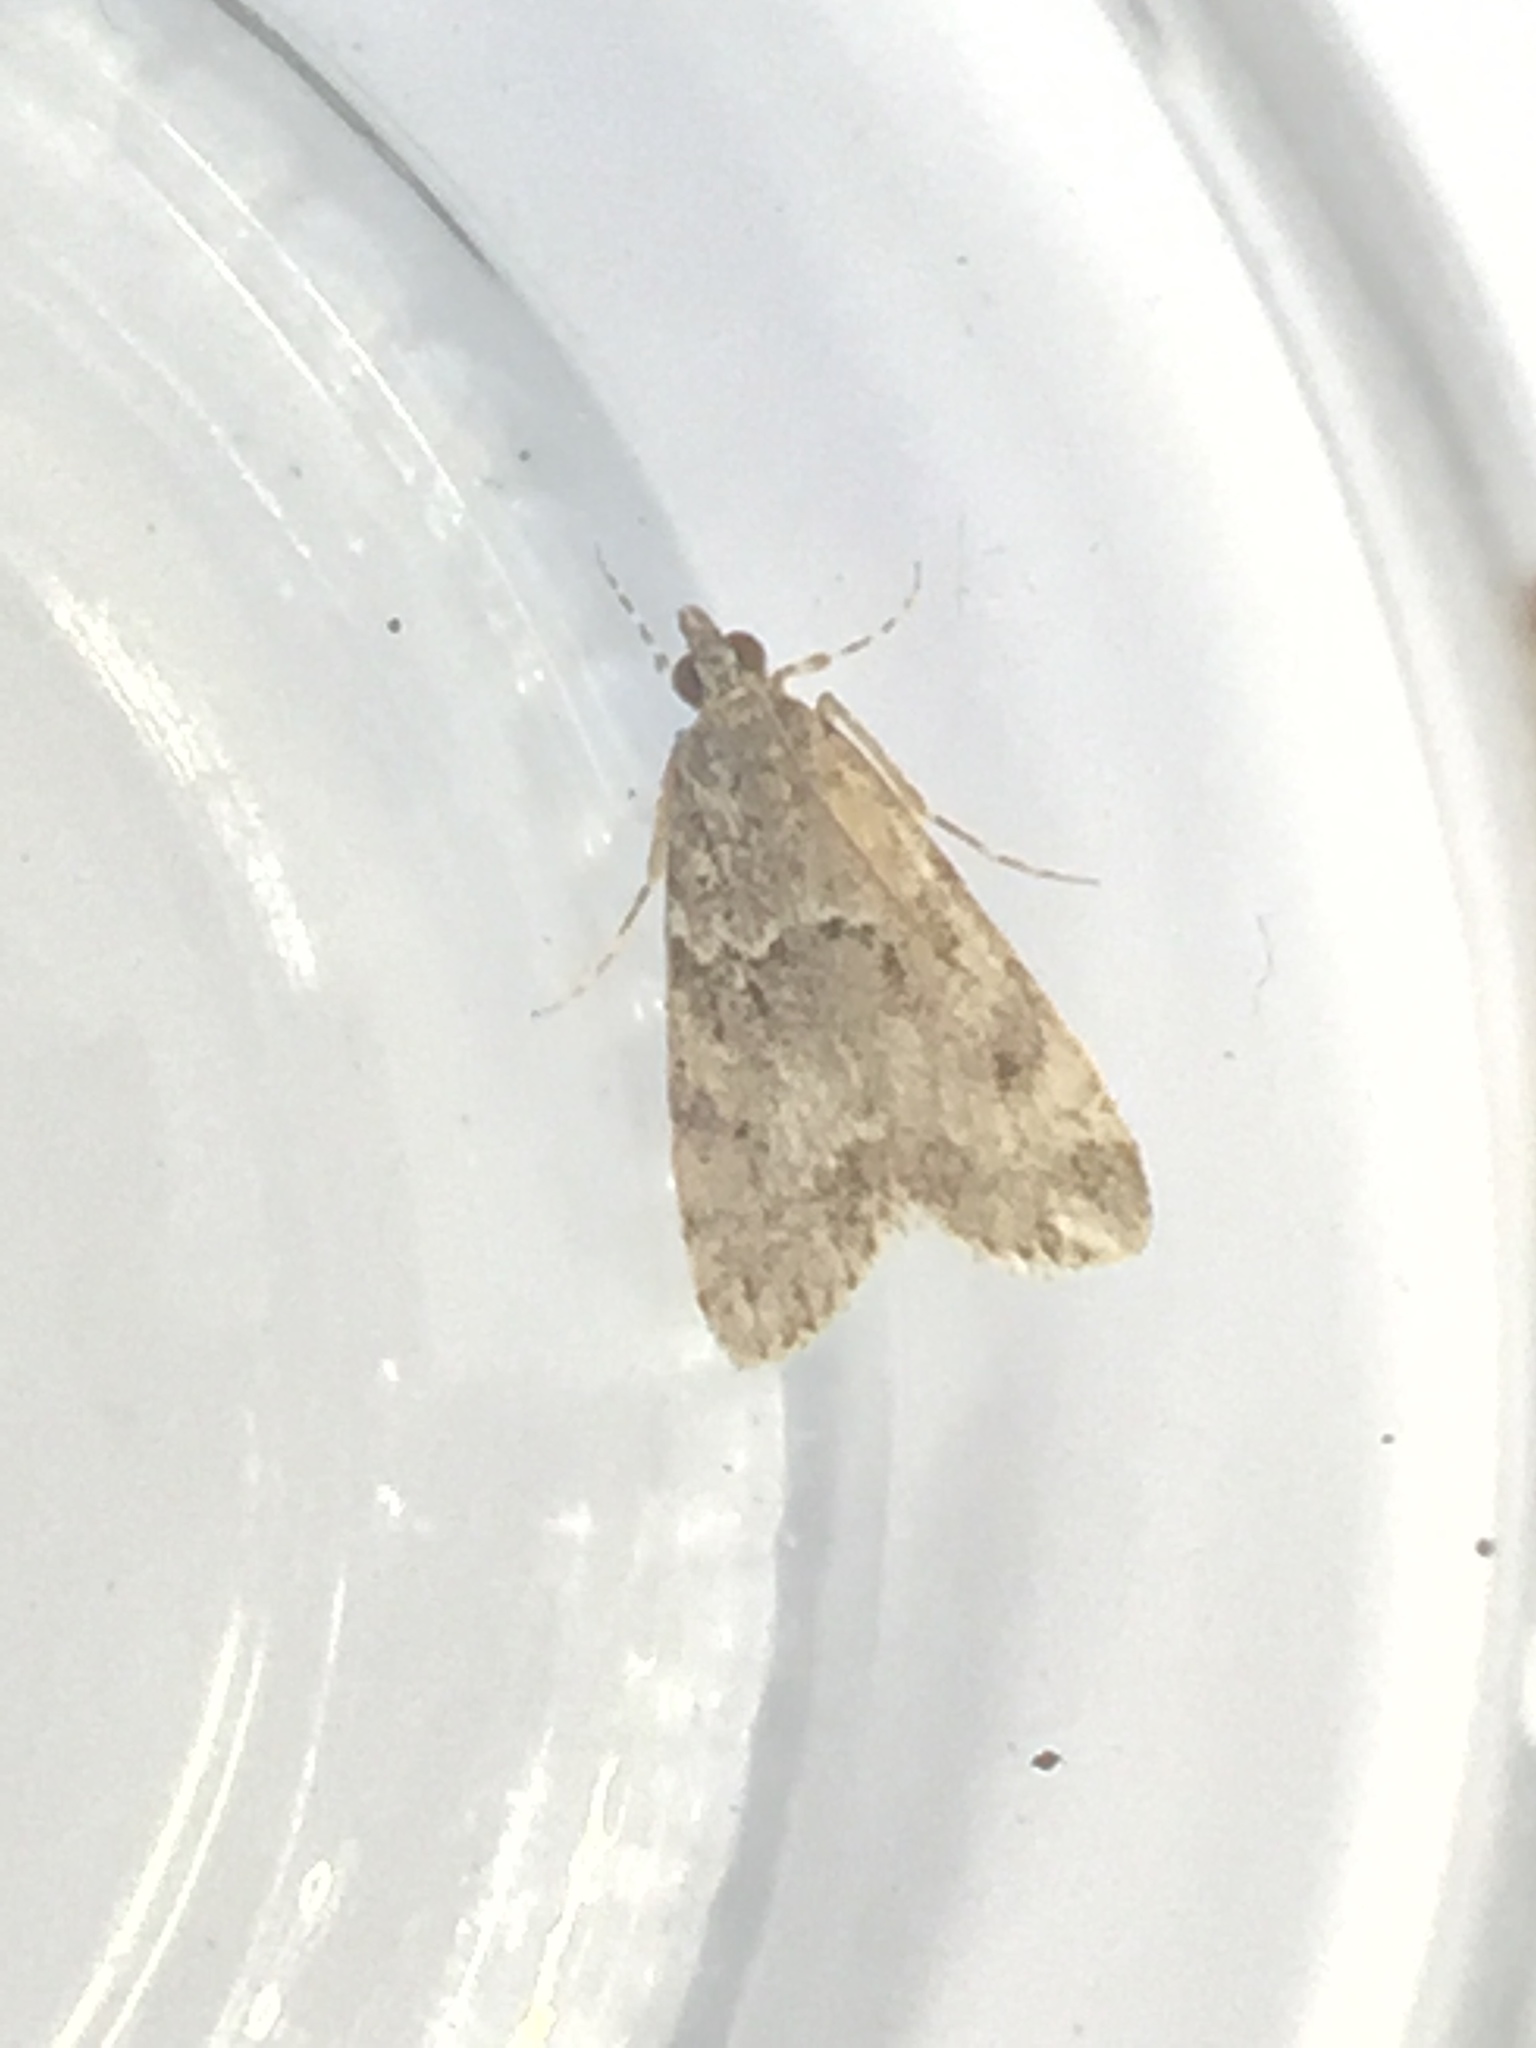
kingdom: Animalia
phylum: Arthropoda
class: Insecta
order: Lepidoptera
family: Crambidae
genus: Eudonia
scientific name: Eudonia mercurella
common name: Small grey
